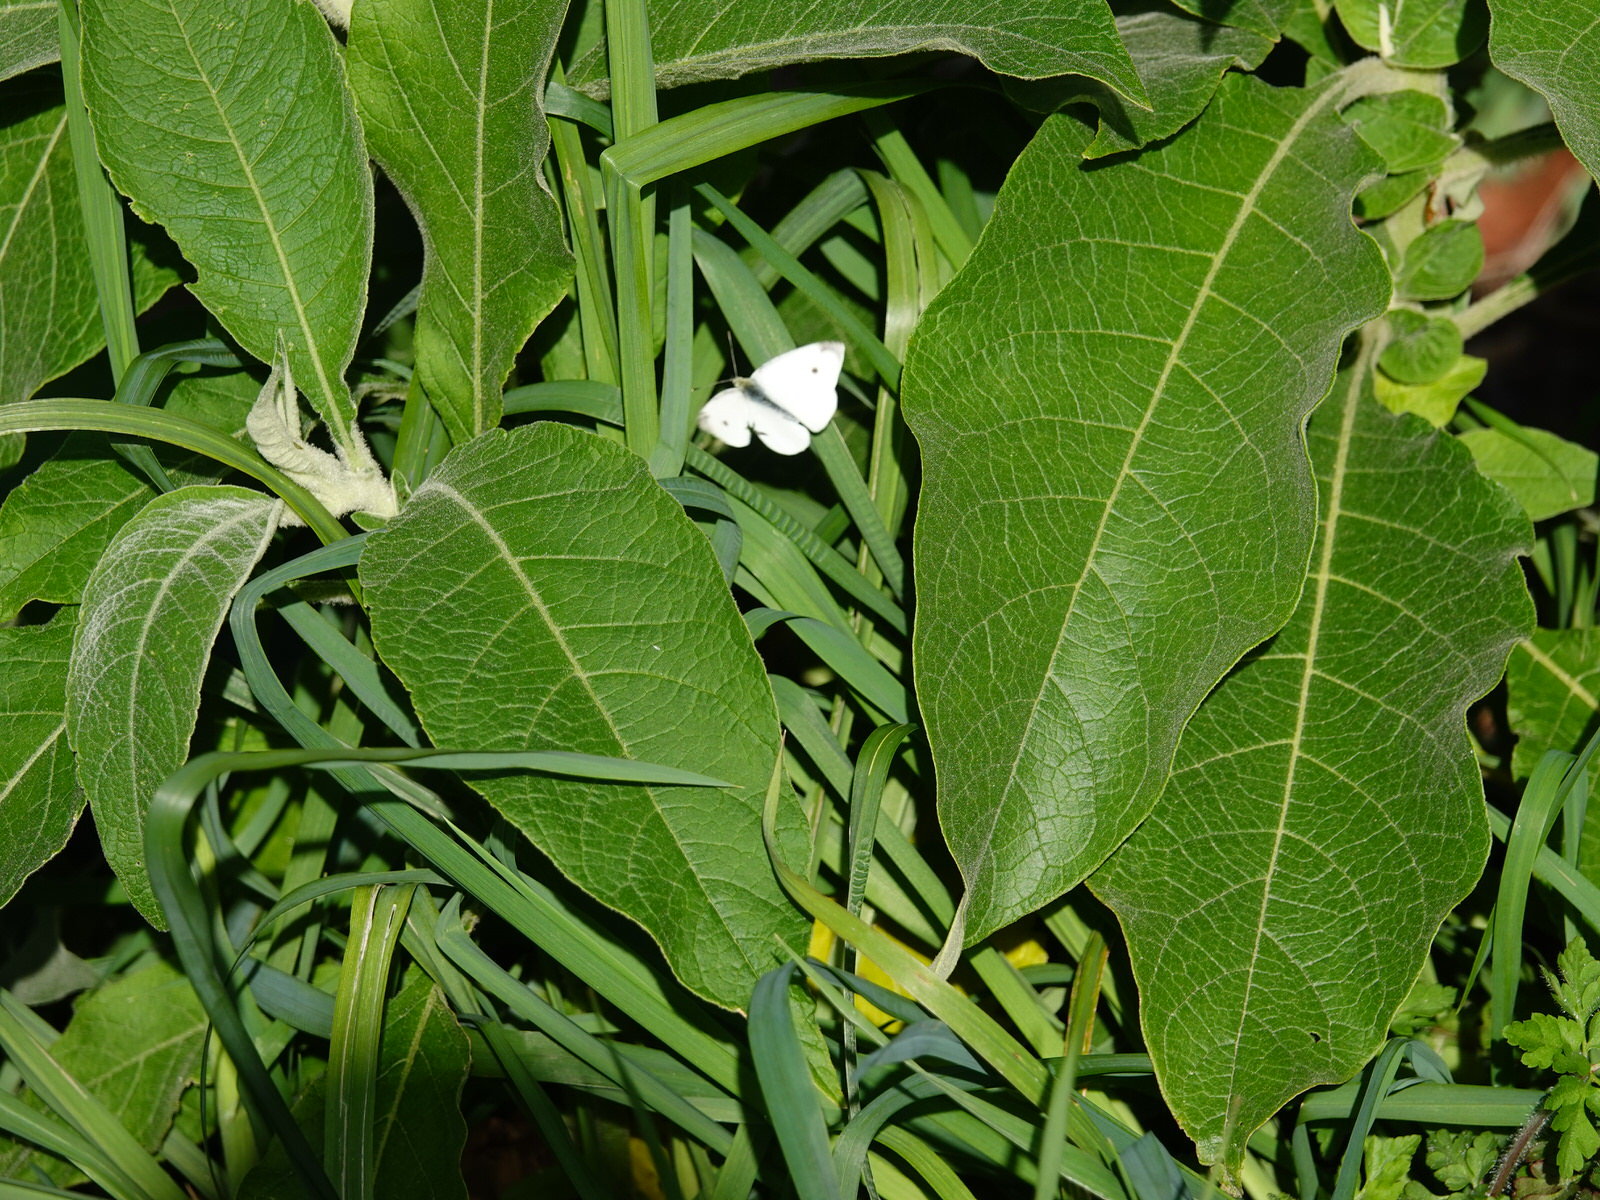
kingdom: Animalia
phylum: Arthropoda
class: Insecta
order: Lepidoptera
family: Pieridae
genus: Pieris
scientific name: Pieris rapae
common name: Small white
